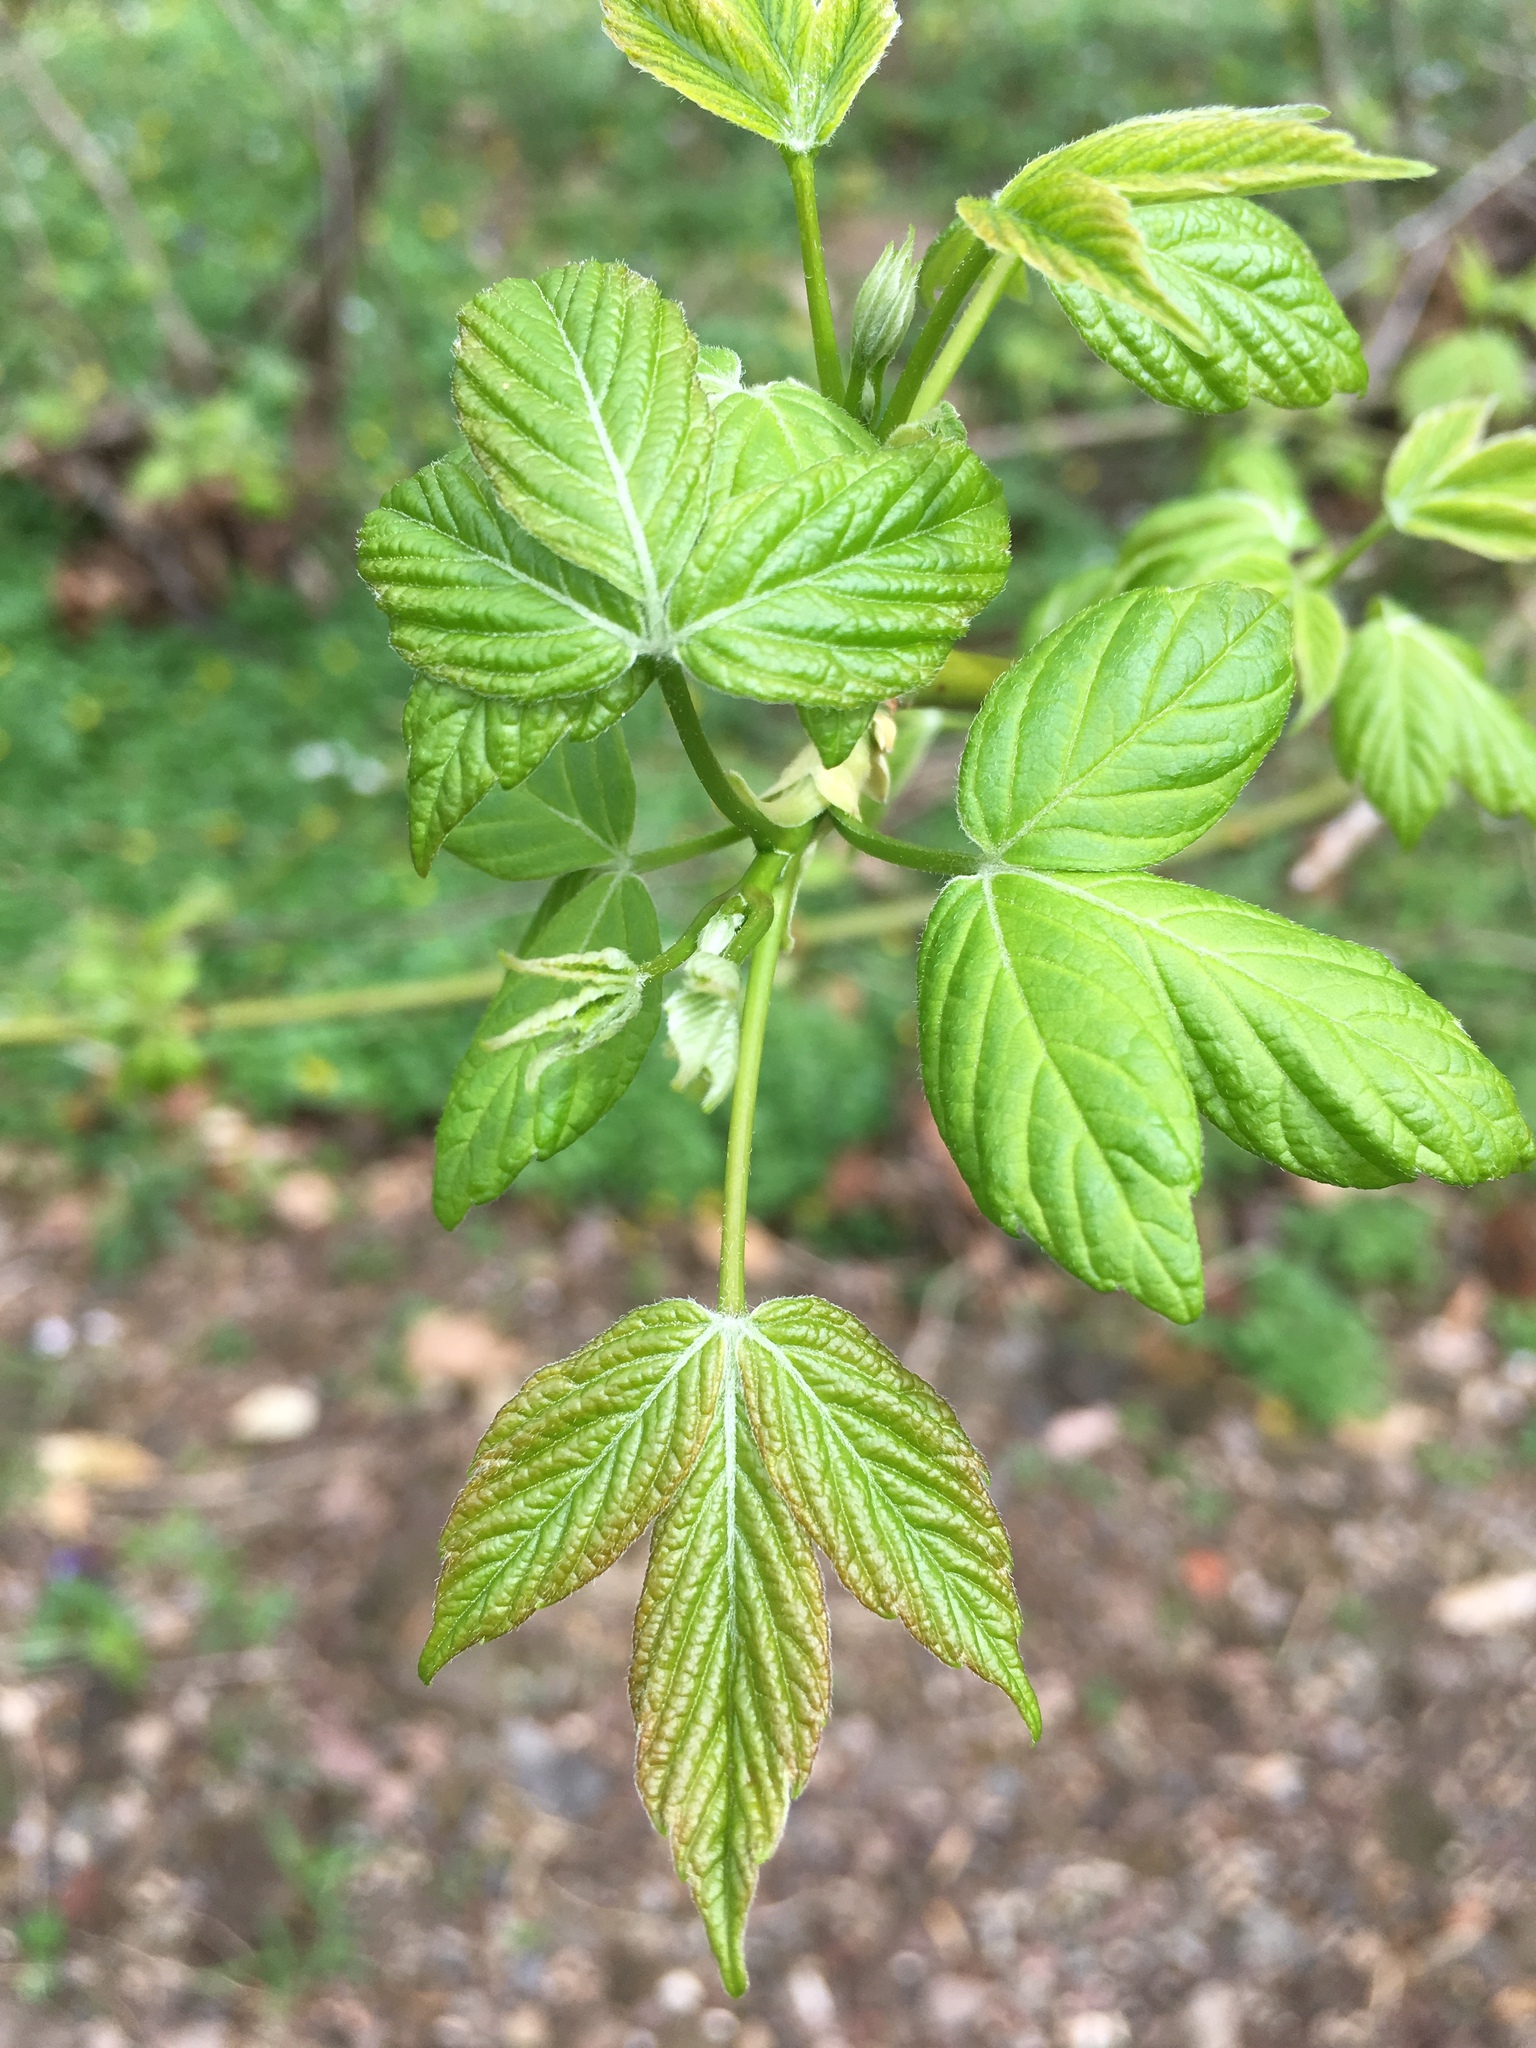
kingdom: Plantae
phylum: Tracheophyta
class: Magnoliopsida
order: Sapindales
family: Sapindaceae
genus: Acer
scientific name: Acer negundo
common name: Ashleaf maple
